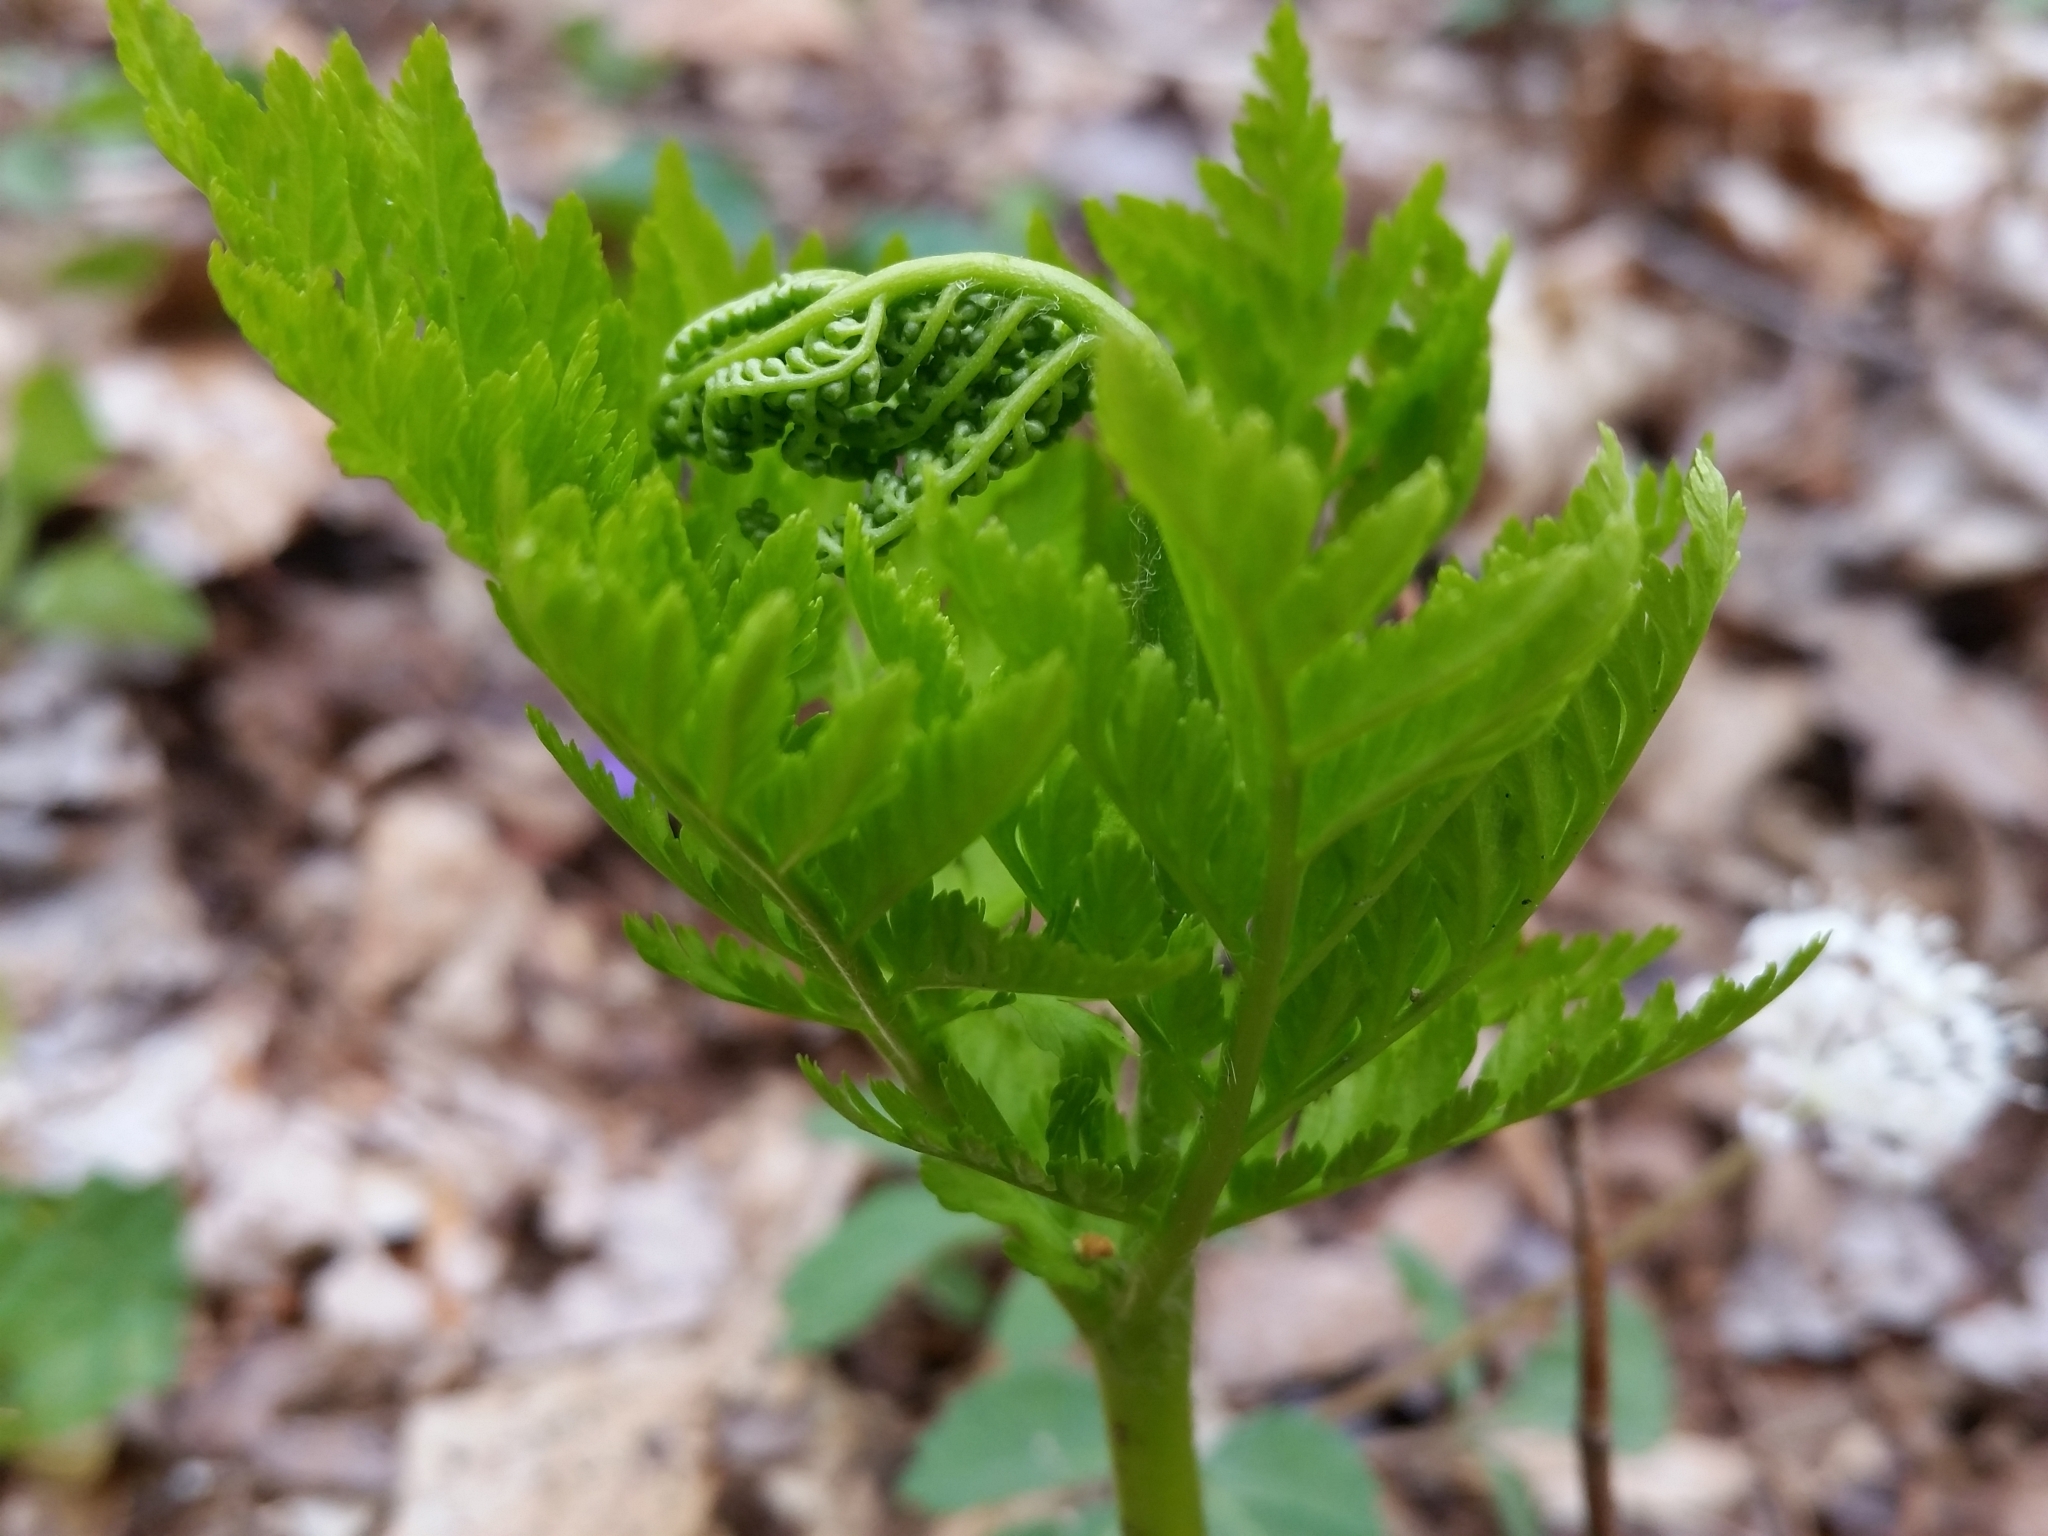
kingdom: Plantae
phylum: Tracheophyta
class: Polypodiopsida
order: Ophioglossales
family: Ophioglossaceae
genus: Botrypus
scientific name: Botrypus virginianus
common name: Common grapefern
